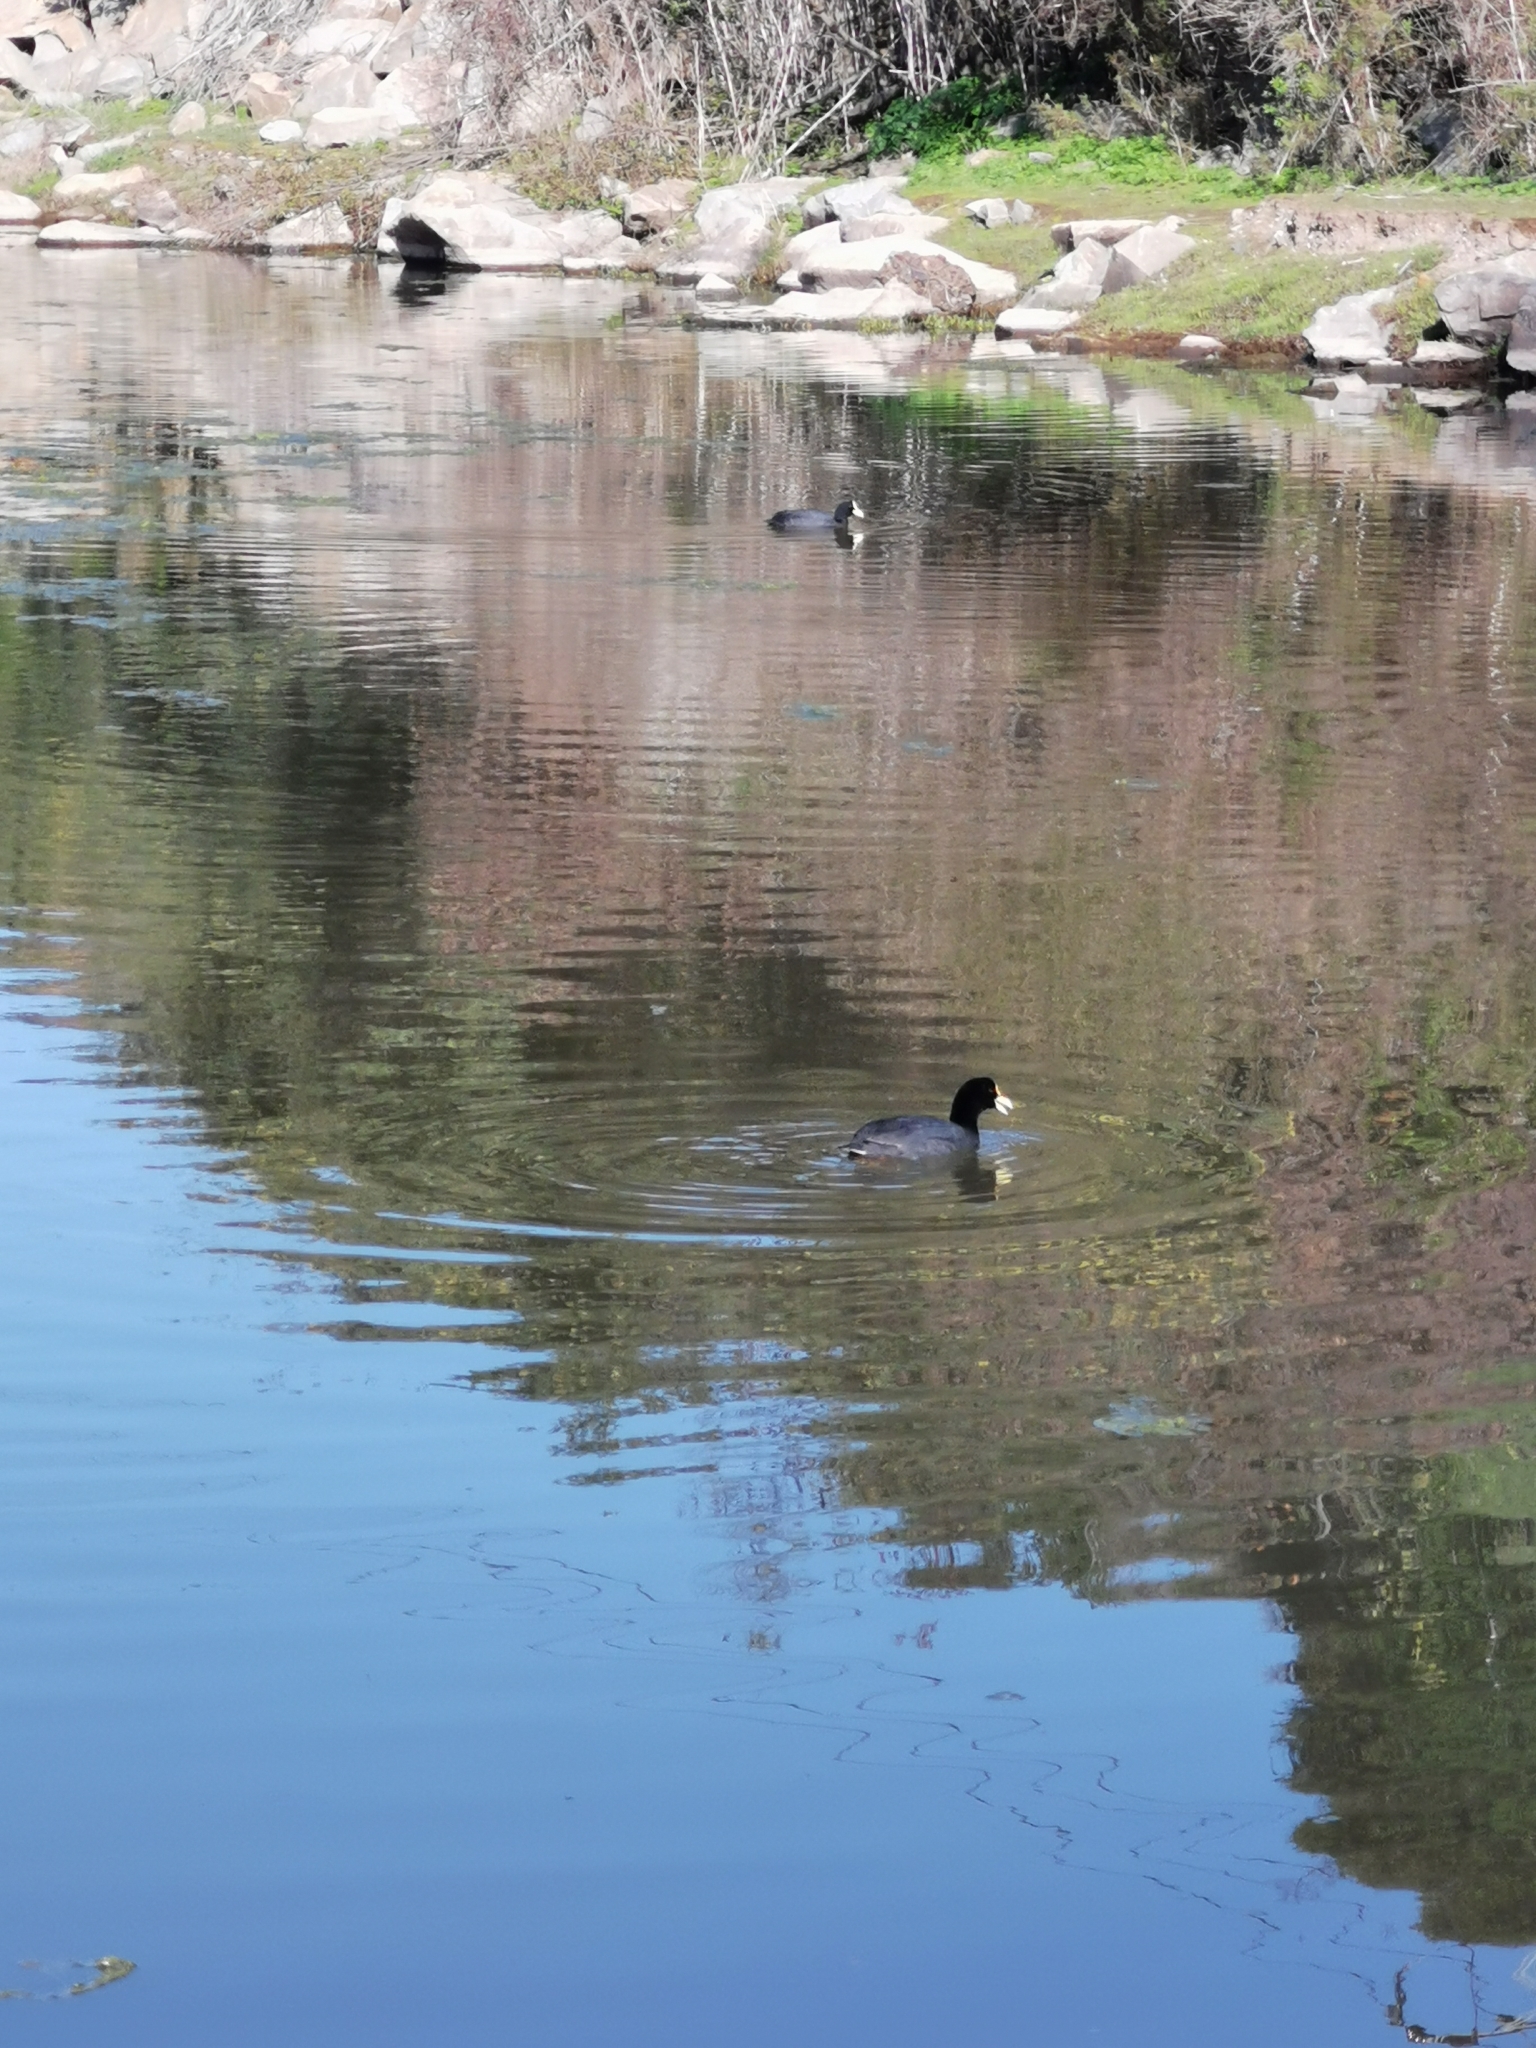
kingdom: Animalia
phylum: Chordata
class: Aves
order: Gruiformes
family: Rallidae
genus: Fulica
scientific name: Fulica armillata
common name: Red-gartered coot
